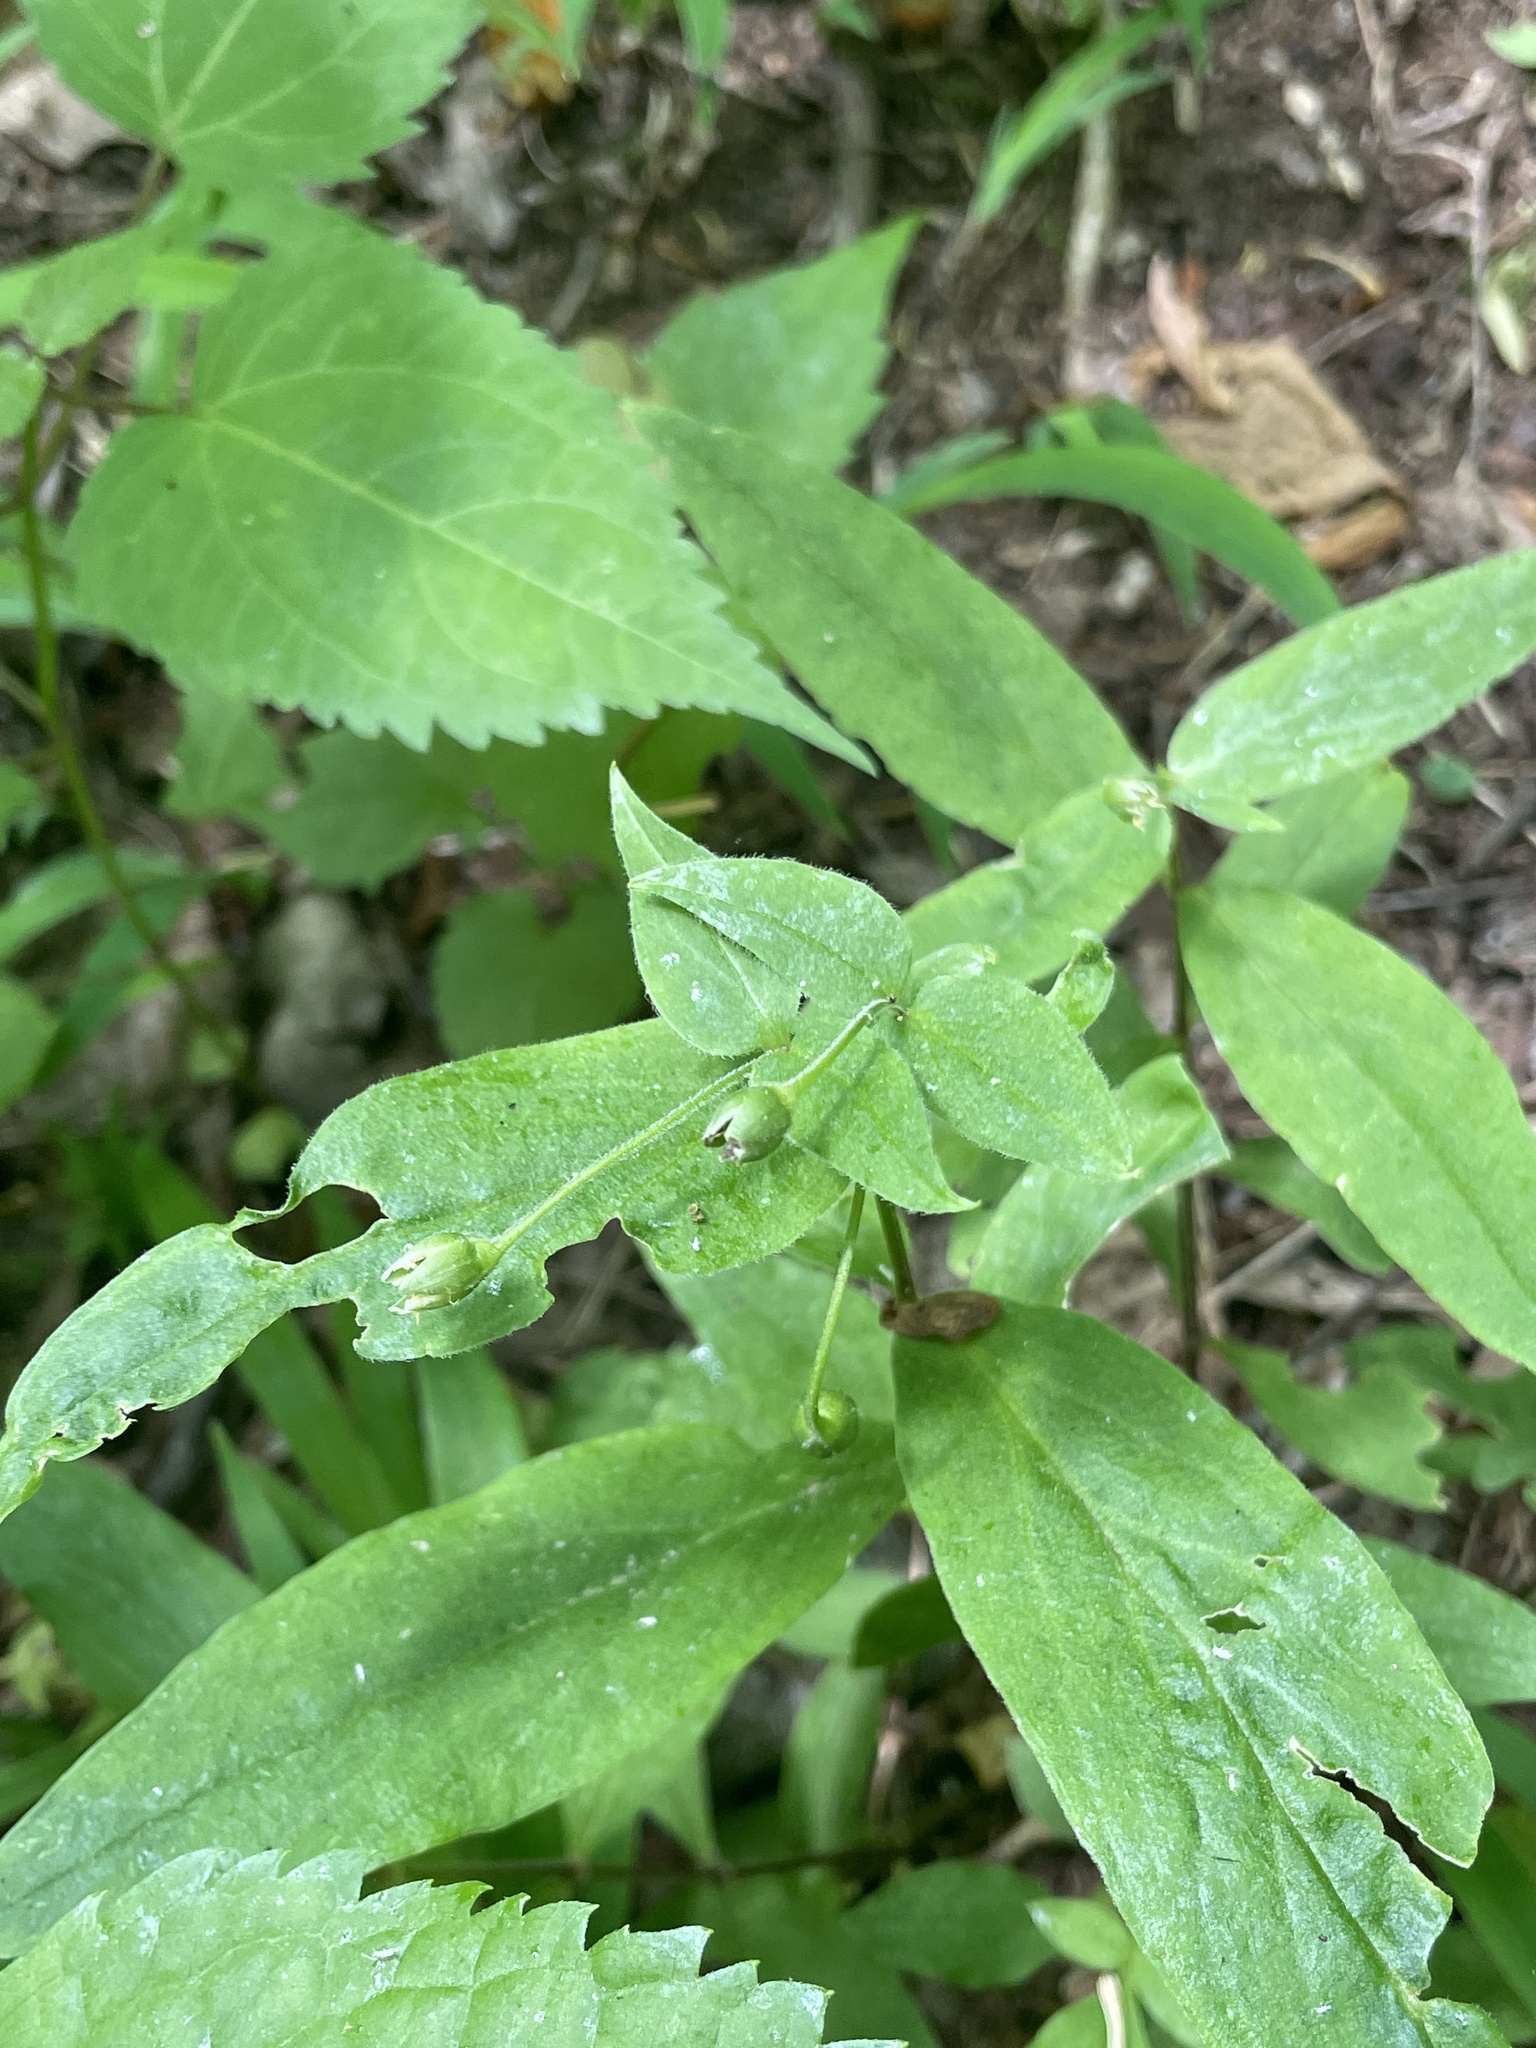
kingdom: Plantae
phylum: Tracheophyta
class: Magnoliopsida
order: Caryophyllales
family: Caryophyllaceae
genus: Stellaria
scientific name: Stellaria pubera
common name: Star chickweed
